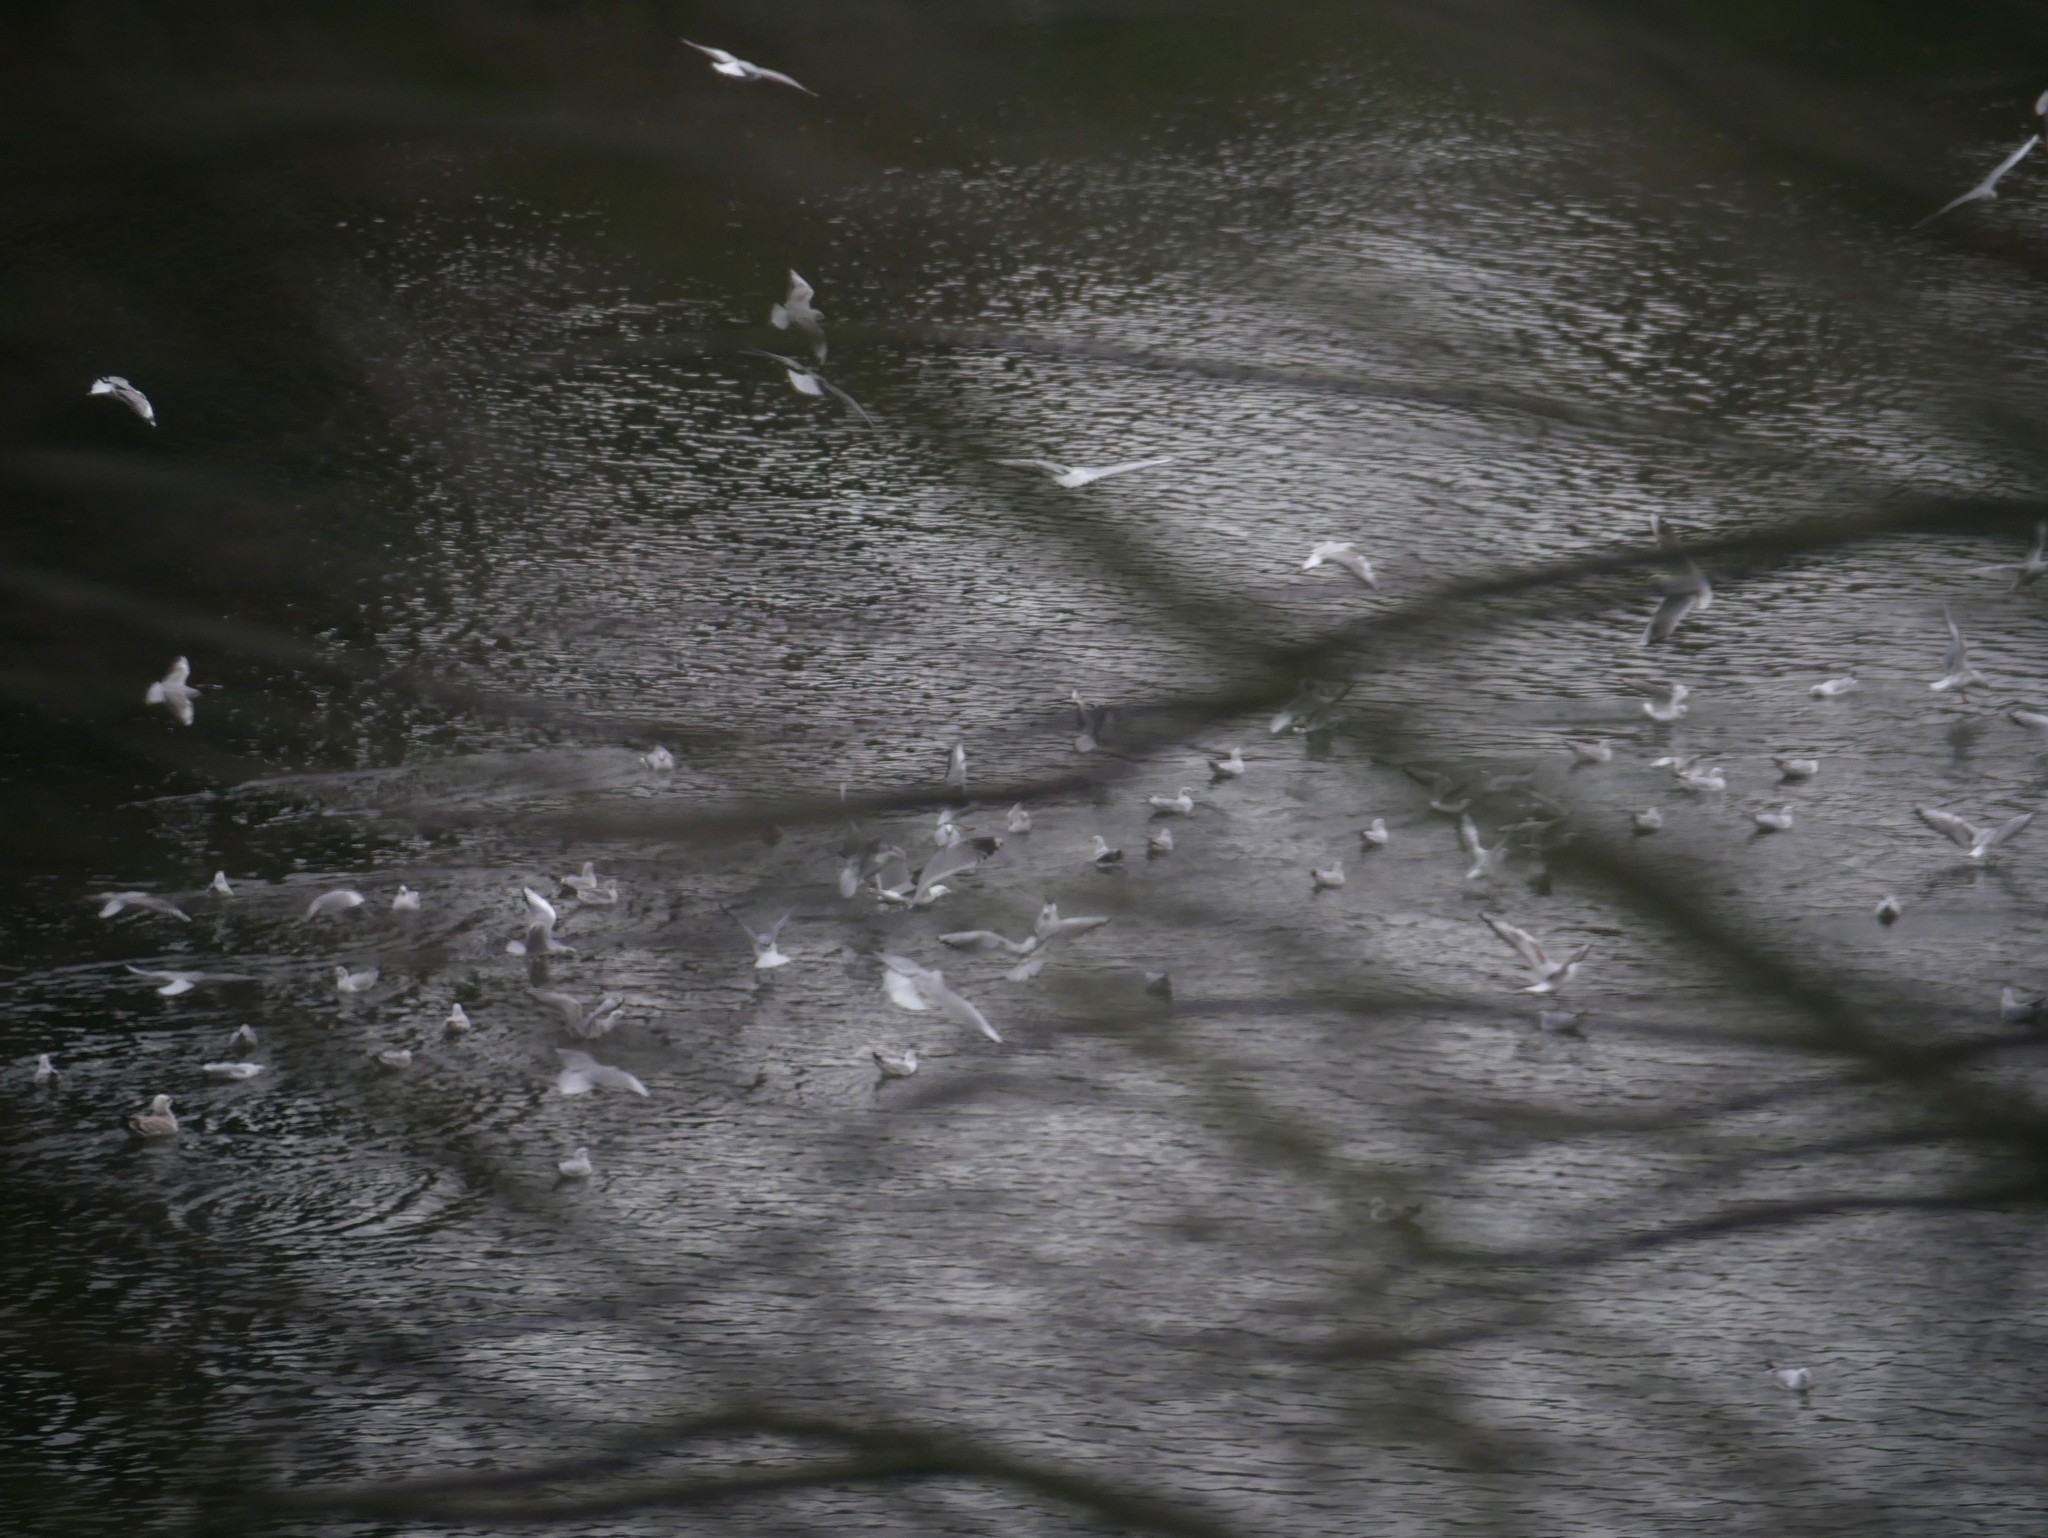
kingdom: Animalia
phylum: Chordata
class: Aves
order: Charadriiformes
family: Laridae
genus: Chroicocephalus
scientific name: Chroicocephalus ridibundus
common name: Black-headed gull
